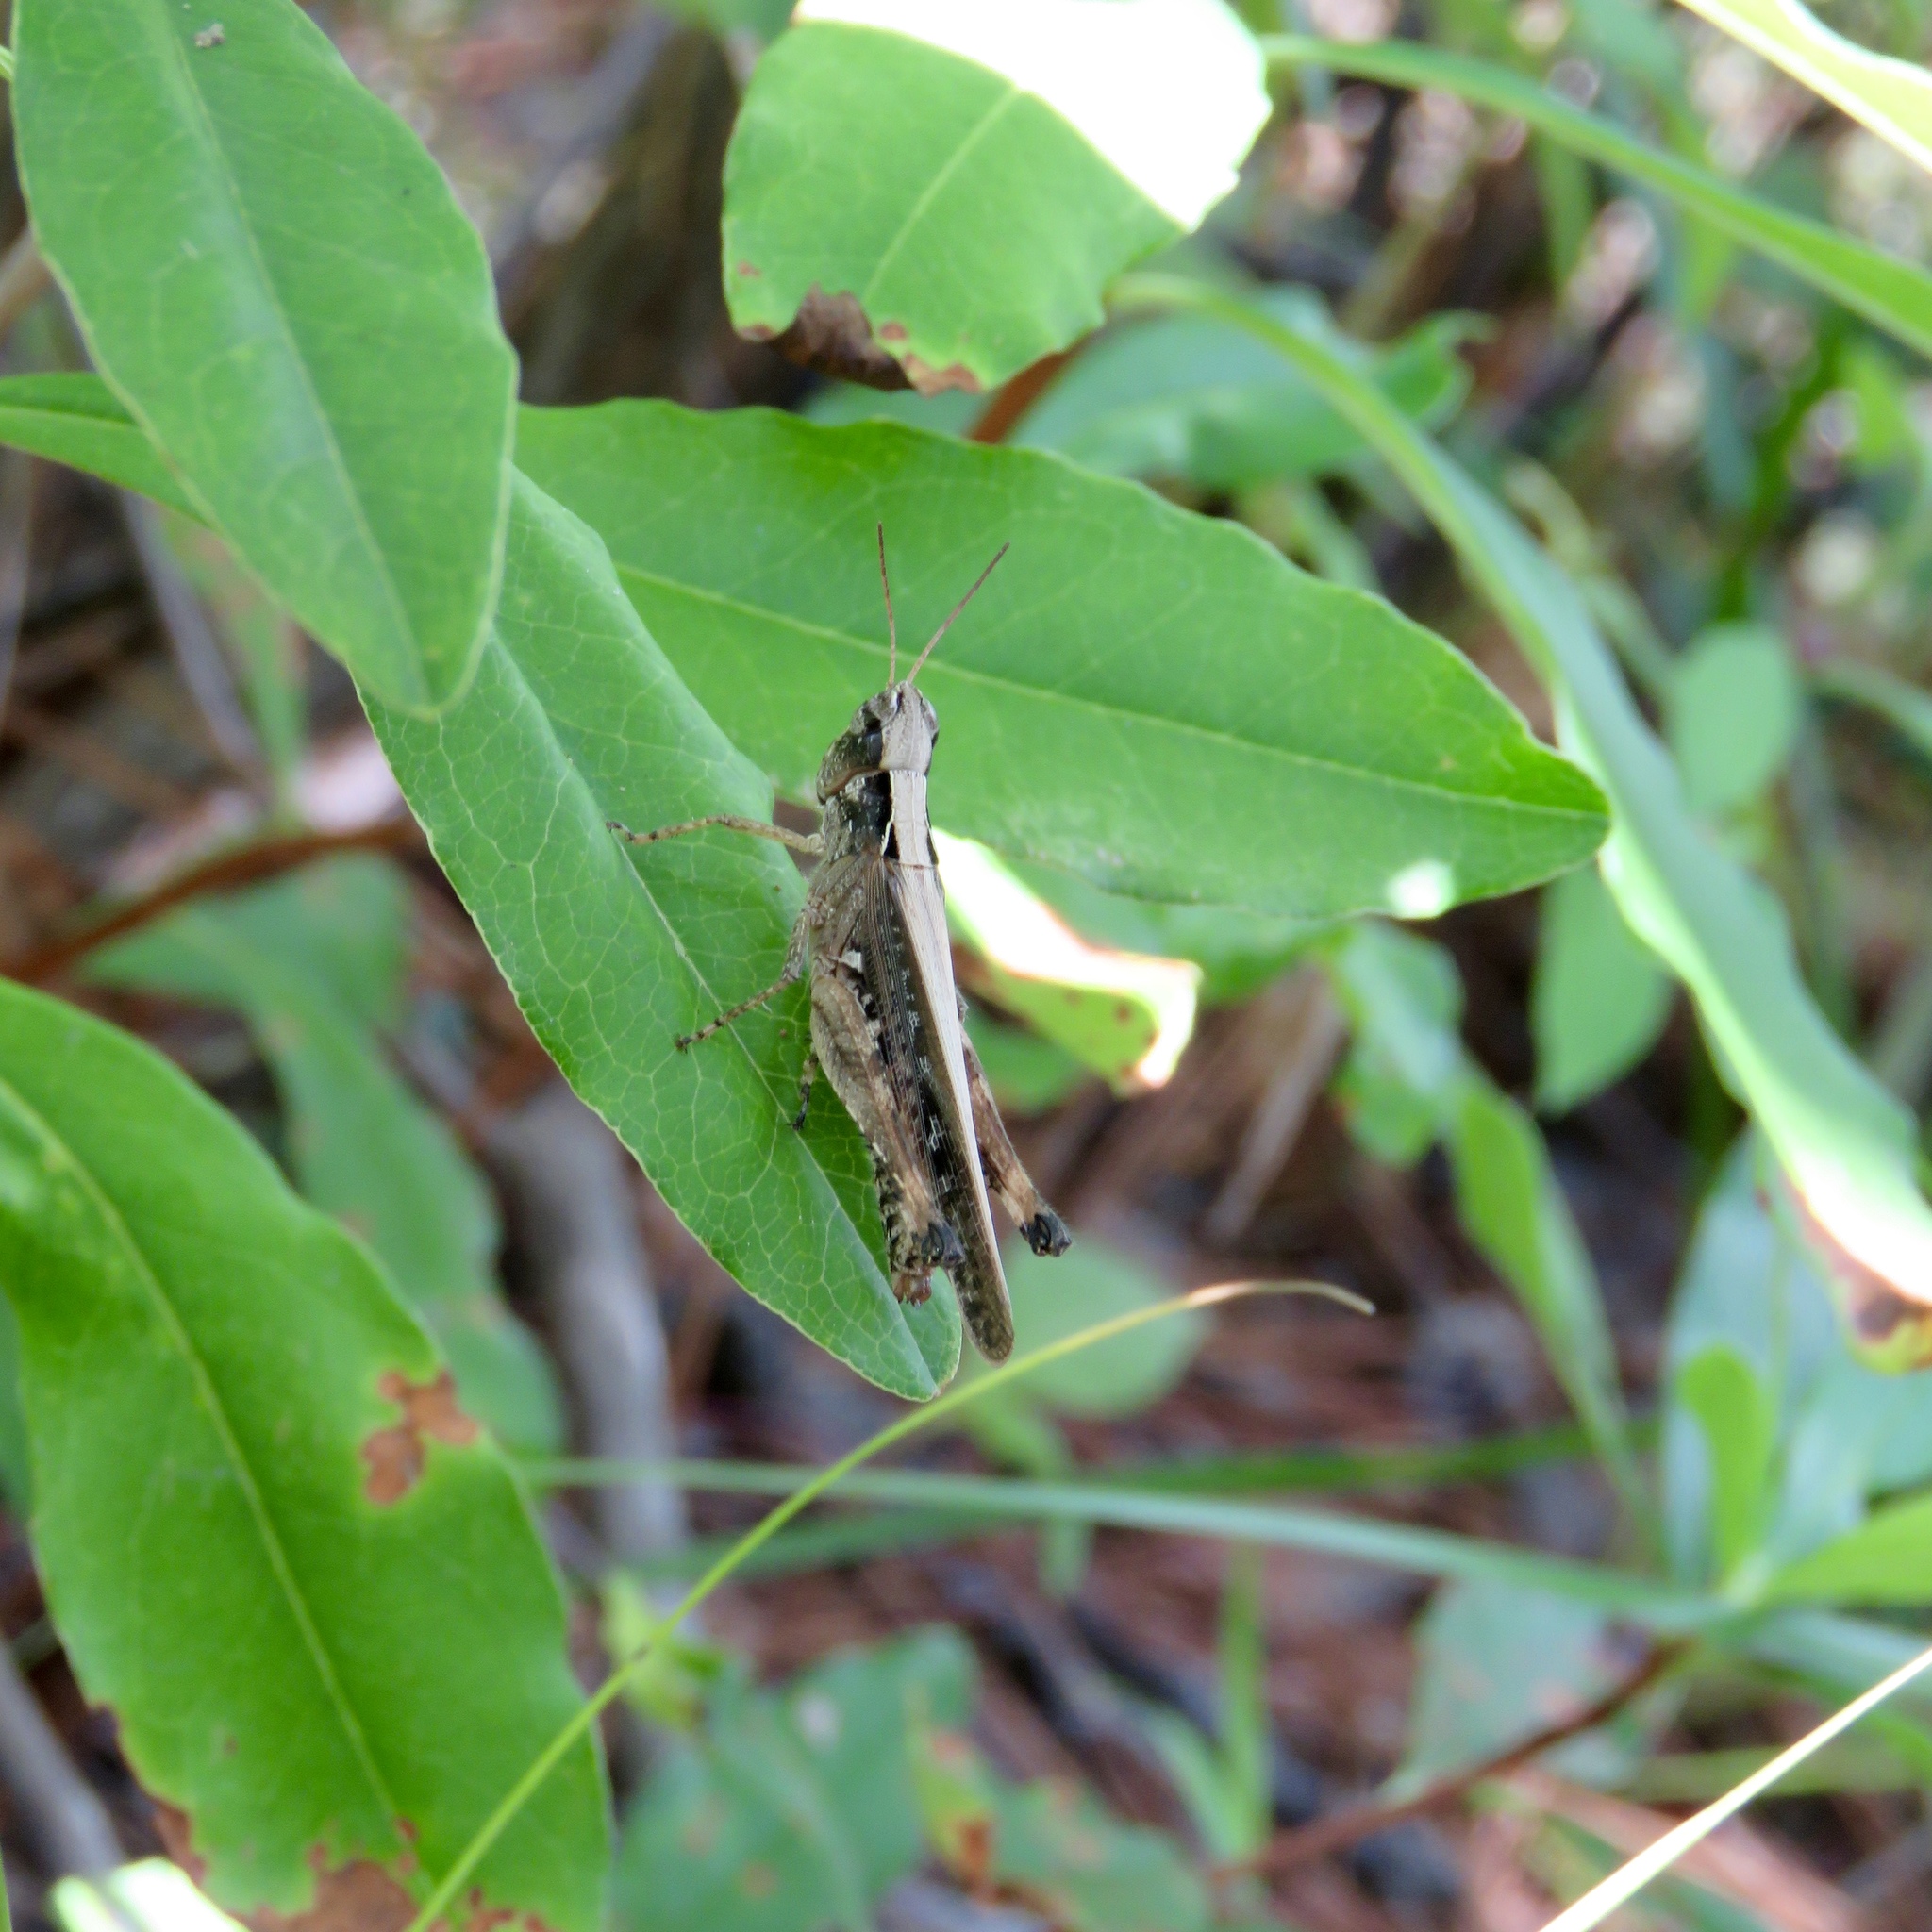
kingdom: Animalia
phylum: Arthropoda
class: Insecta
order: Orthoptera
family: Acrididae
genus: Orphulella
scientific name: Orphulella pelidna
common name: Spotted-wing grasshopper
